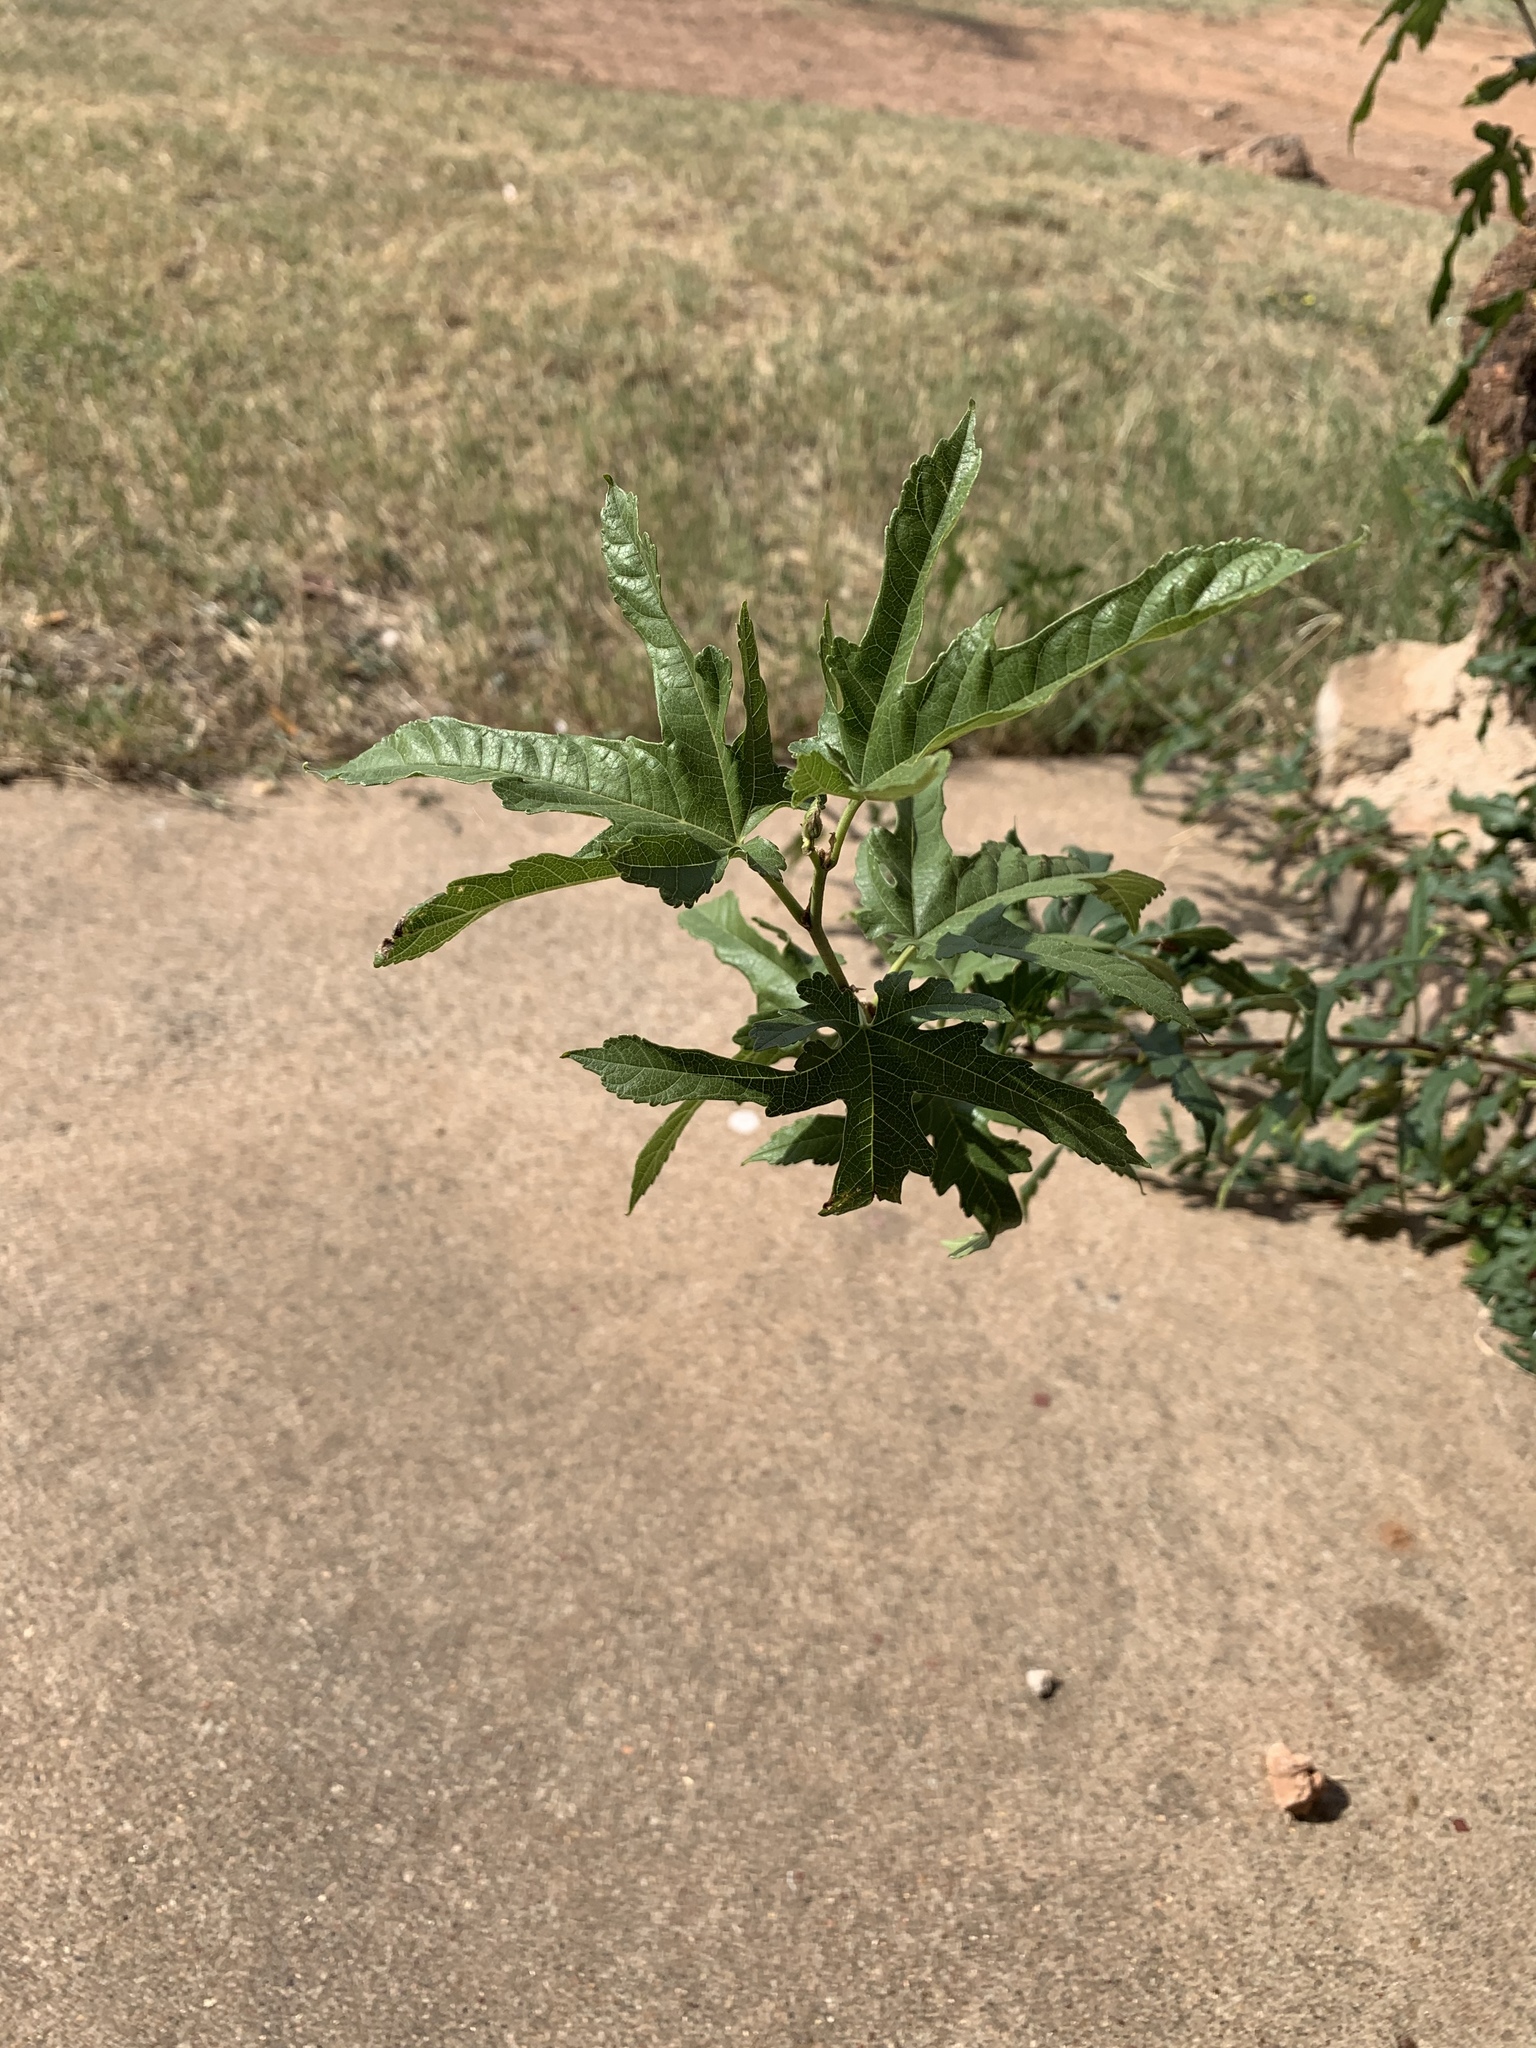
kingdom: Plantae
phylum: Tracheophyta
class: Magnoliopsida
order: Rosales
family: Moraceae
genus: Morus
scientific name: Morus indica
